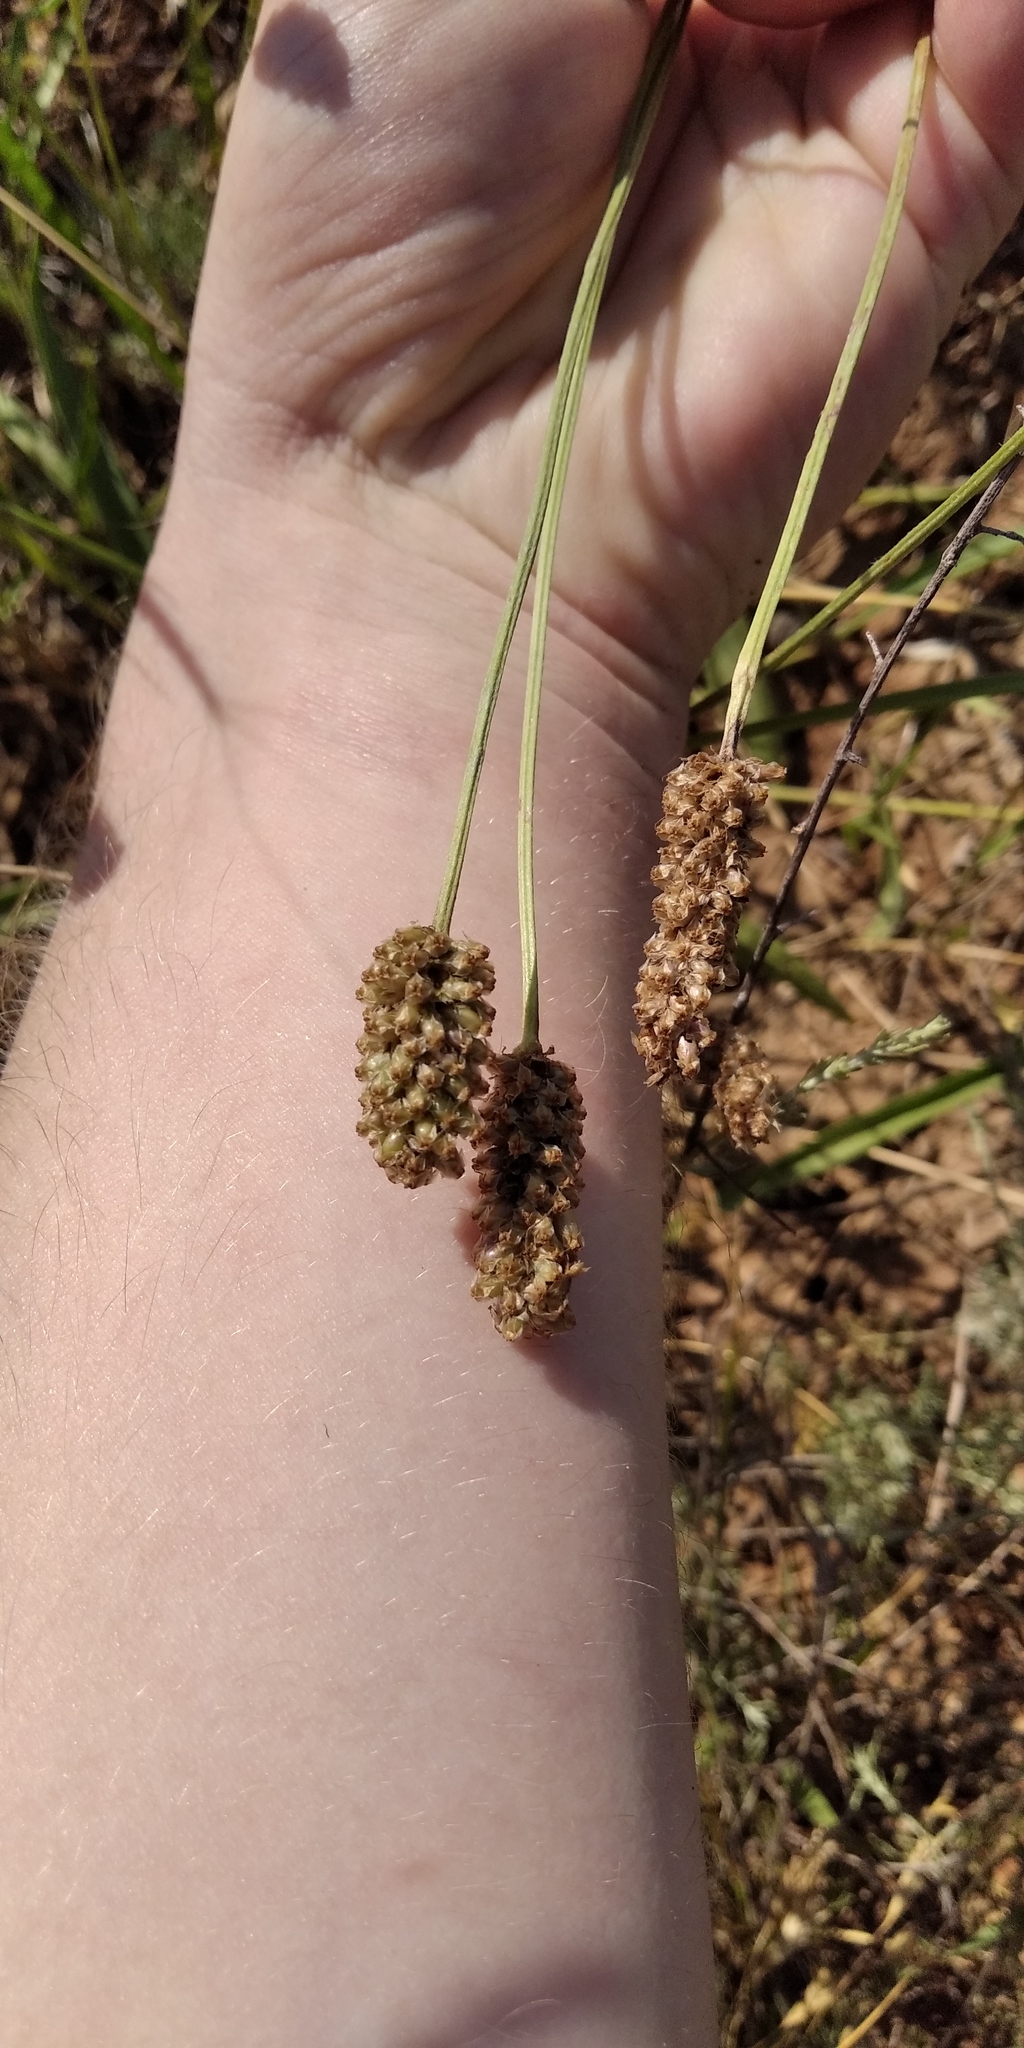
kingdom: Plantae
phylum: Tracheophyta
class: Magnoliopsida
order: Lamiales
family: Plantaginaceae
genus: Plantago
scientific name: Plantago lanceolata
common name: Ribwort plantain
